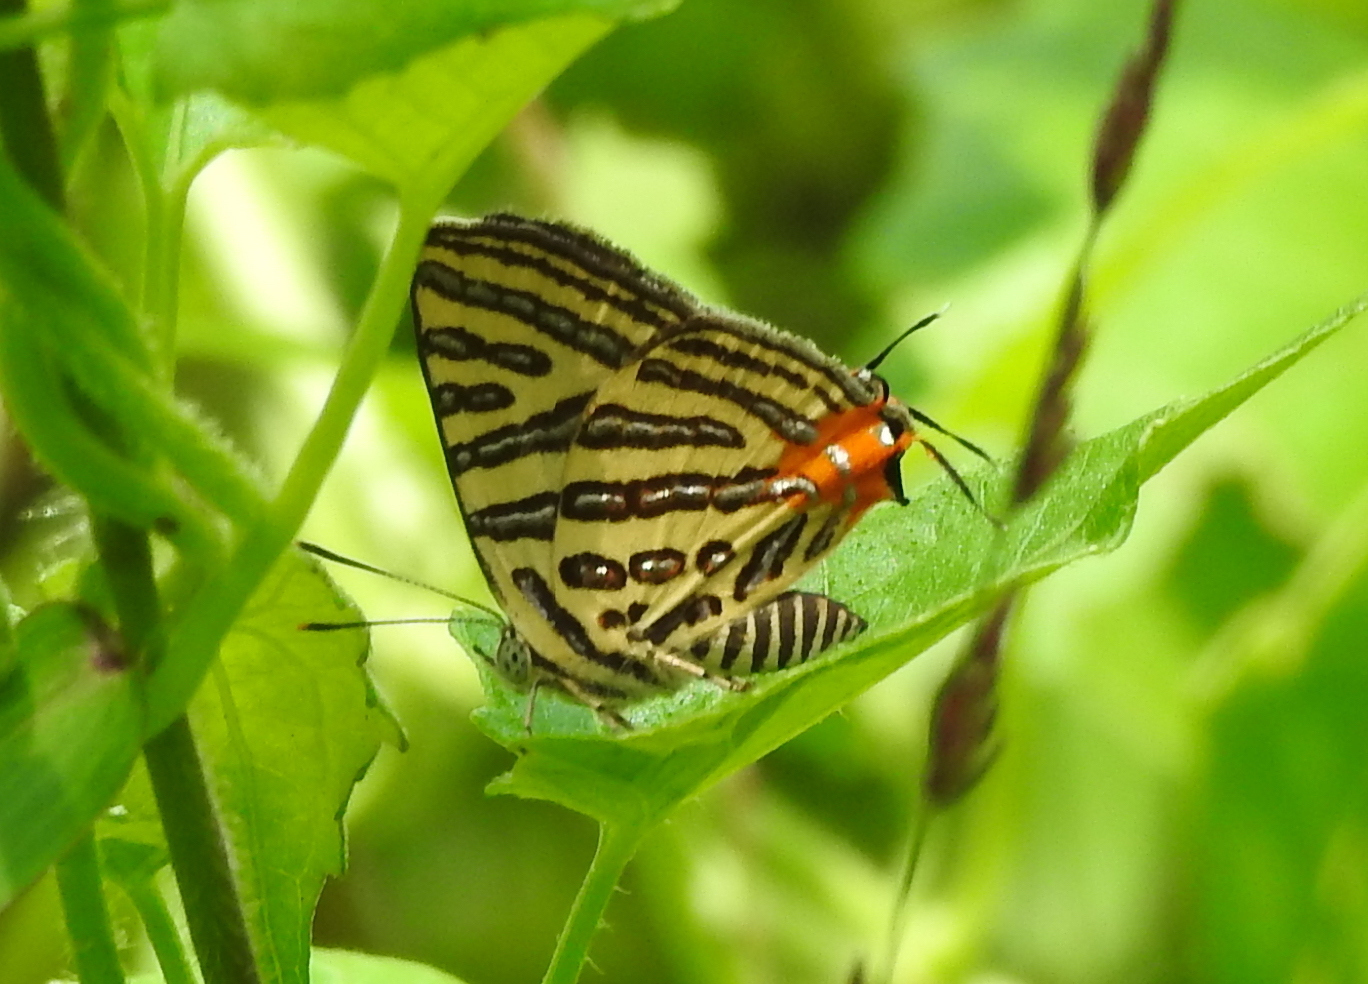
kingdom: Animalia
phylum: Arthropoda
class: Insecta
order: Lepidoptera
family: Lycaenidae
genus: Cigaritis
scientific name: Cigaritis syama
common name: Club silverline
